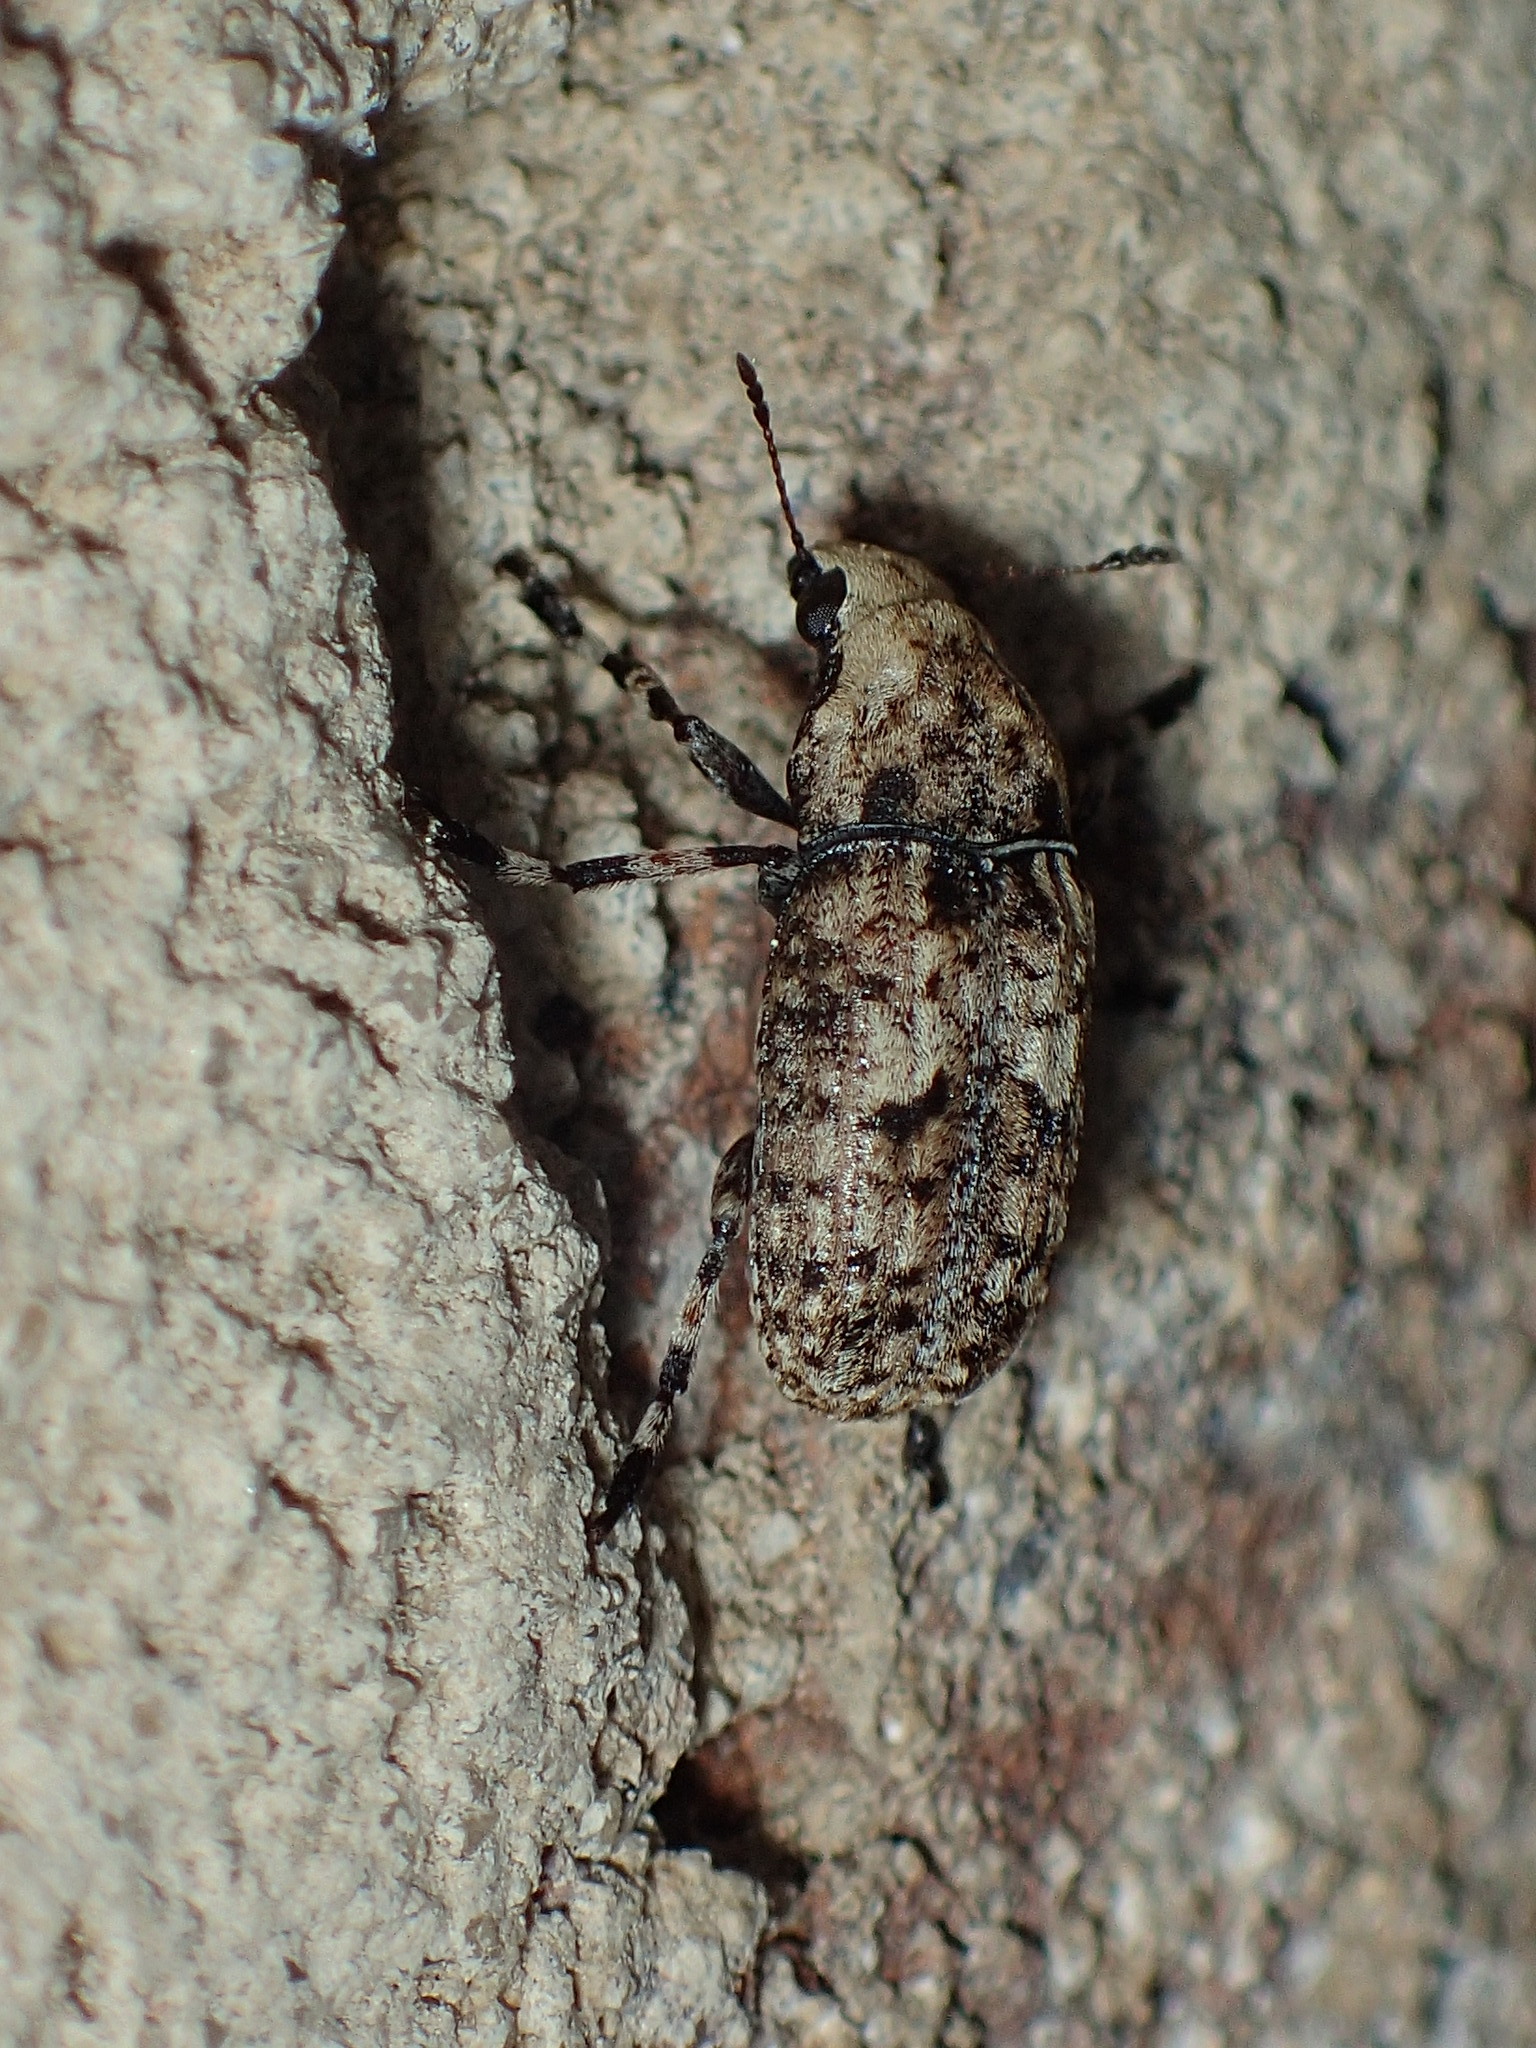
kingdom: Animalia
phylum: Arthropoda
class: Insecta
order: Coleoptera
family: Anthribidae
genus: Euparius
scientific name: Euparius marmoreus
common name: Marbled fungus weevil
